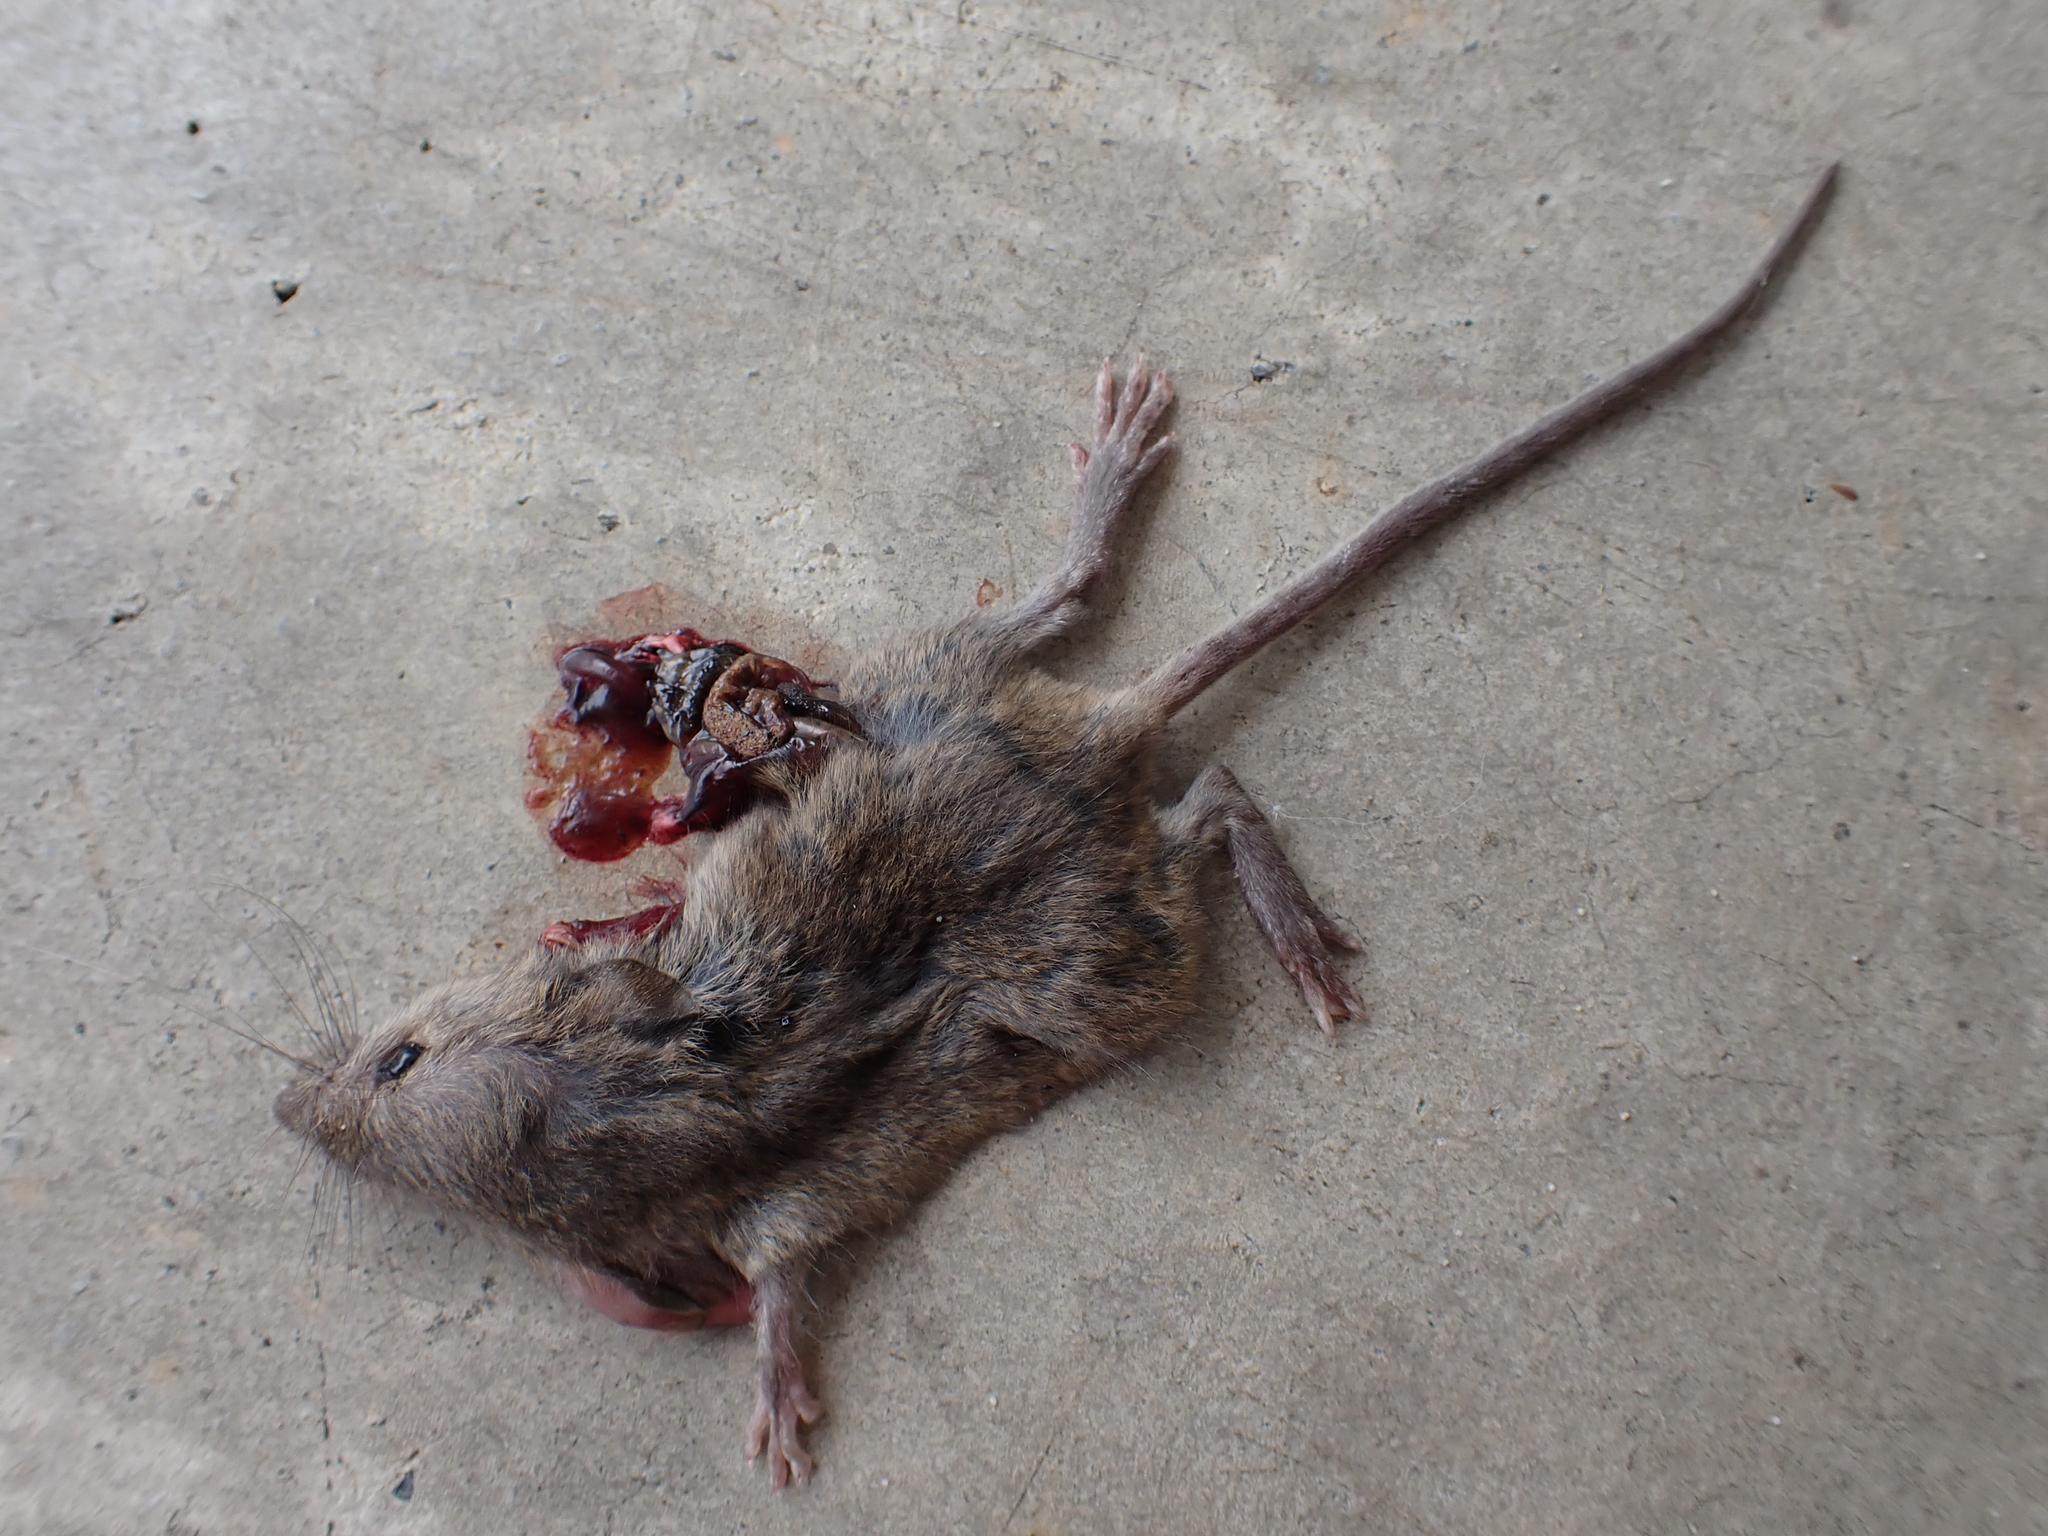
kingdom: Animalia
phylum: Chordata
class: Mammalia
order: Rodentia
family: Muridae
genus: Mus
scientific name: Mus musculus
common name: House mouse
